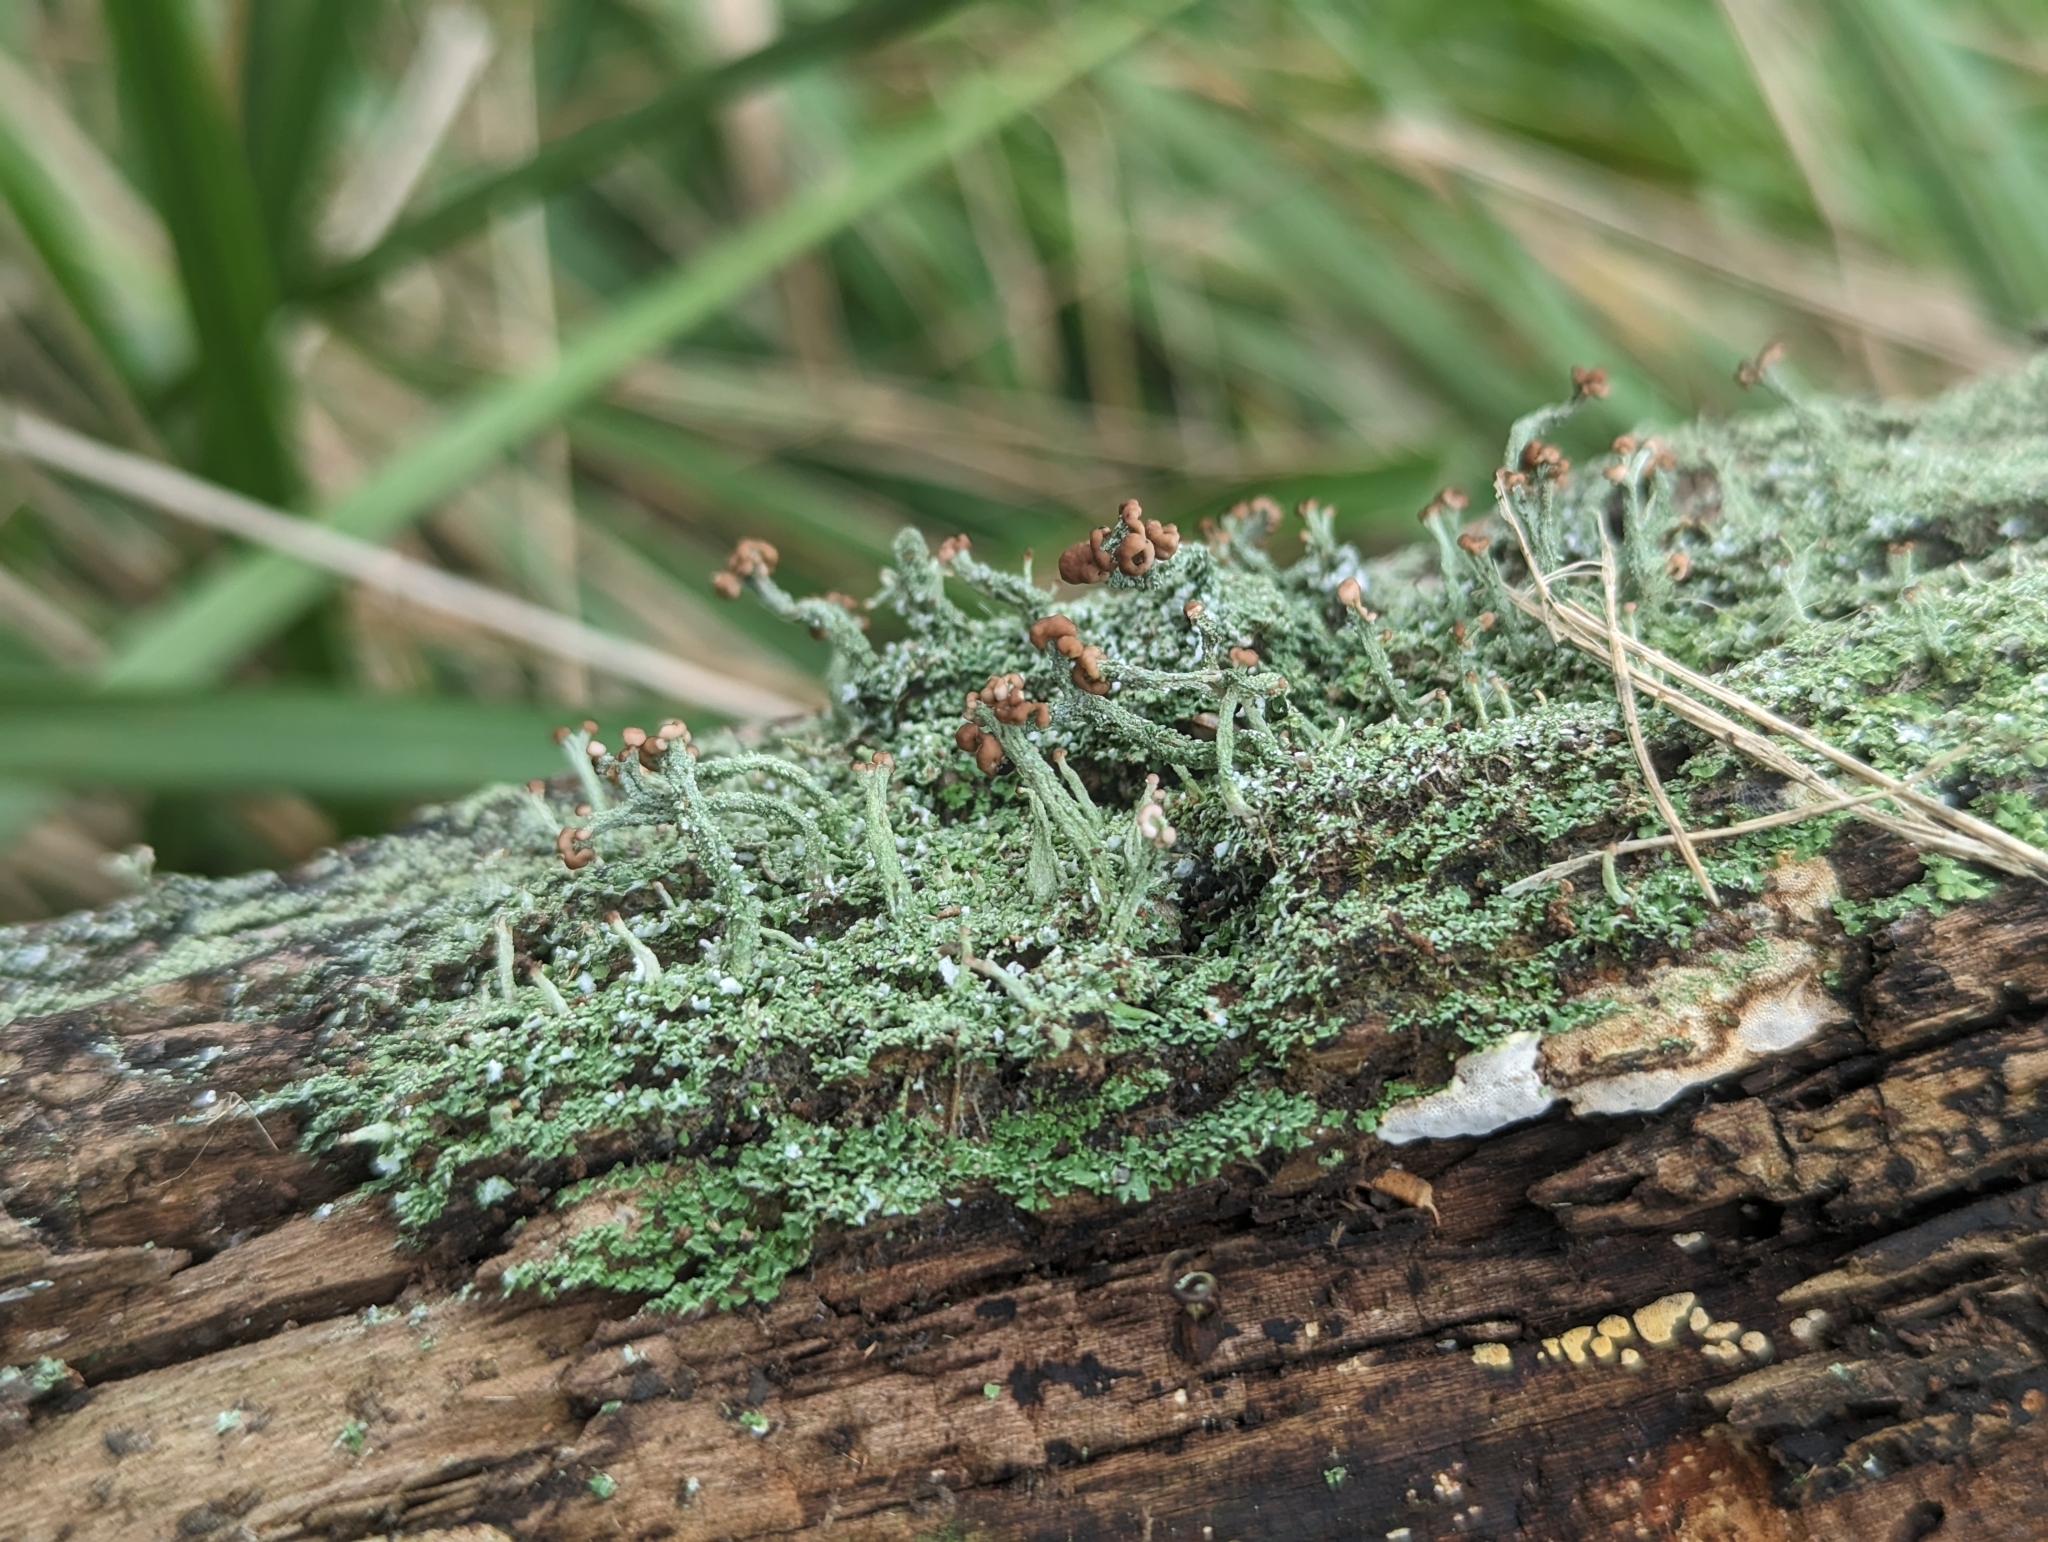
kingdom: Fungi
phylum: Ascomycota
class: Lecanoromycetes
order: Lecanorales
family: Cladoniaceae
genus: Cladonia
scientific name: Cladonia peziziformis
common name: Cup lichen
